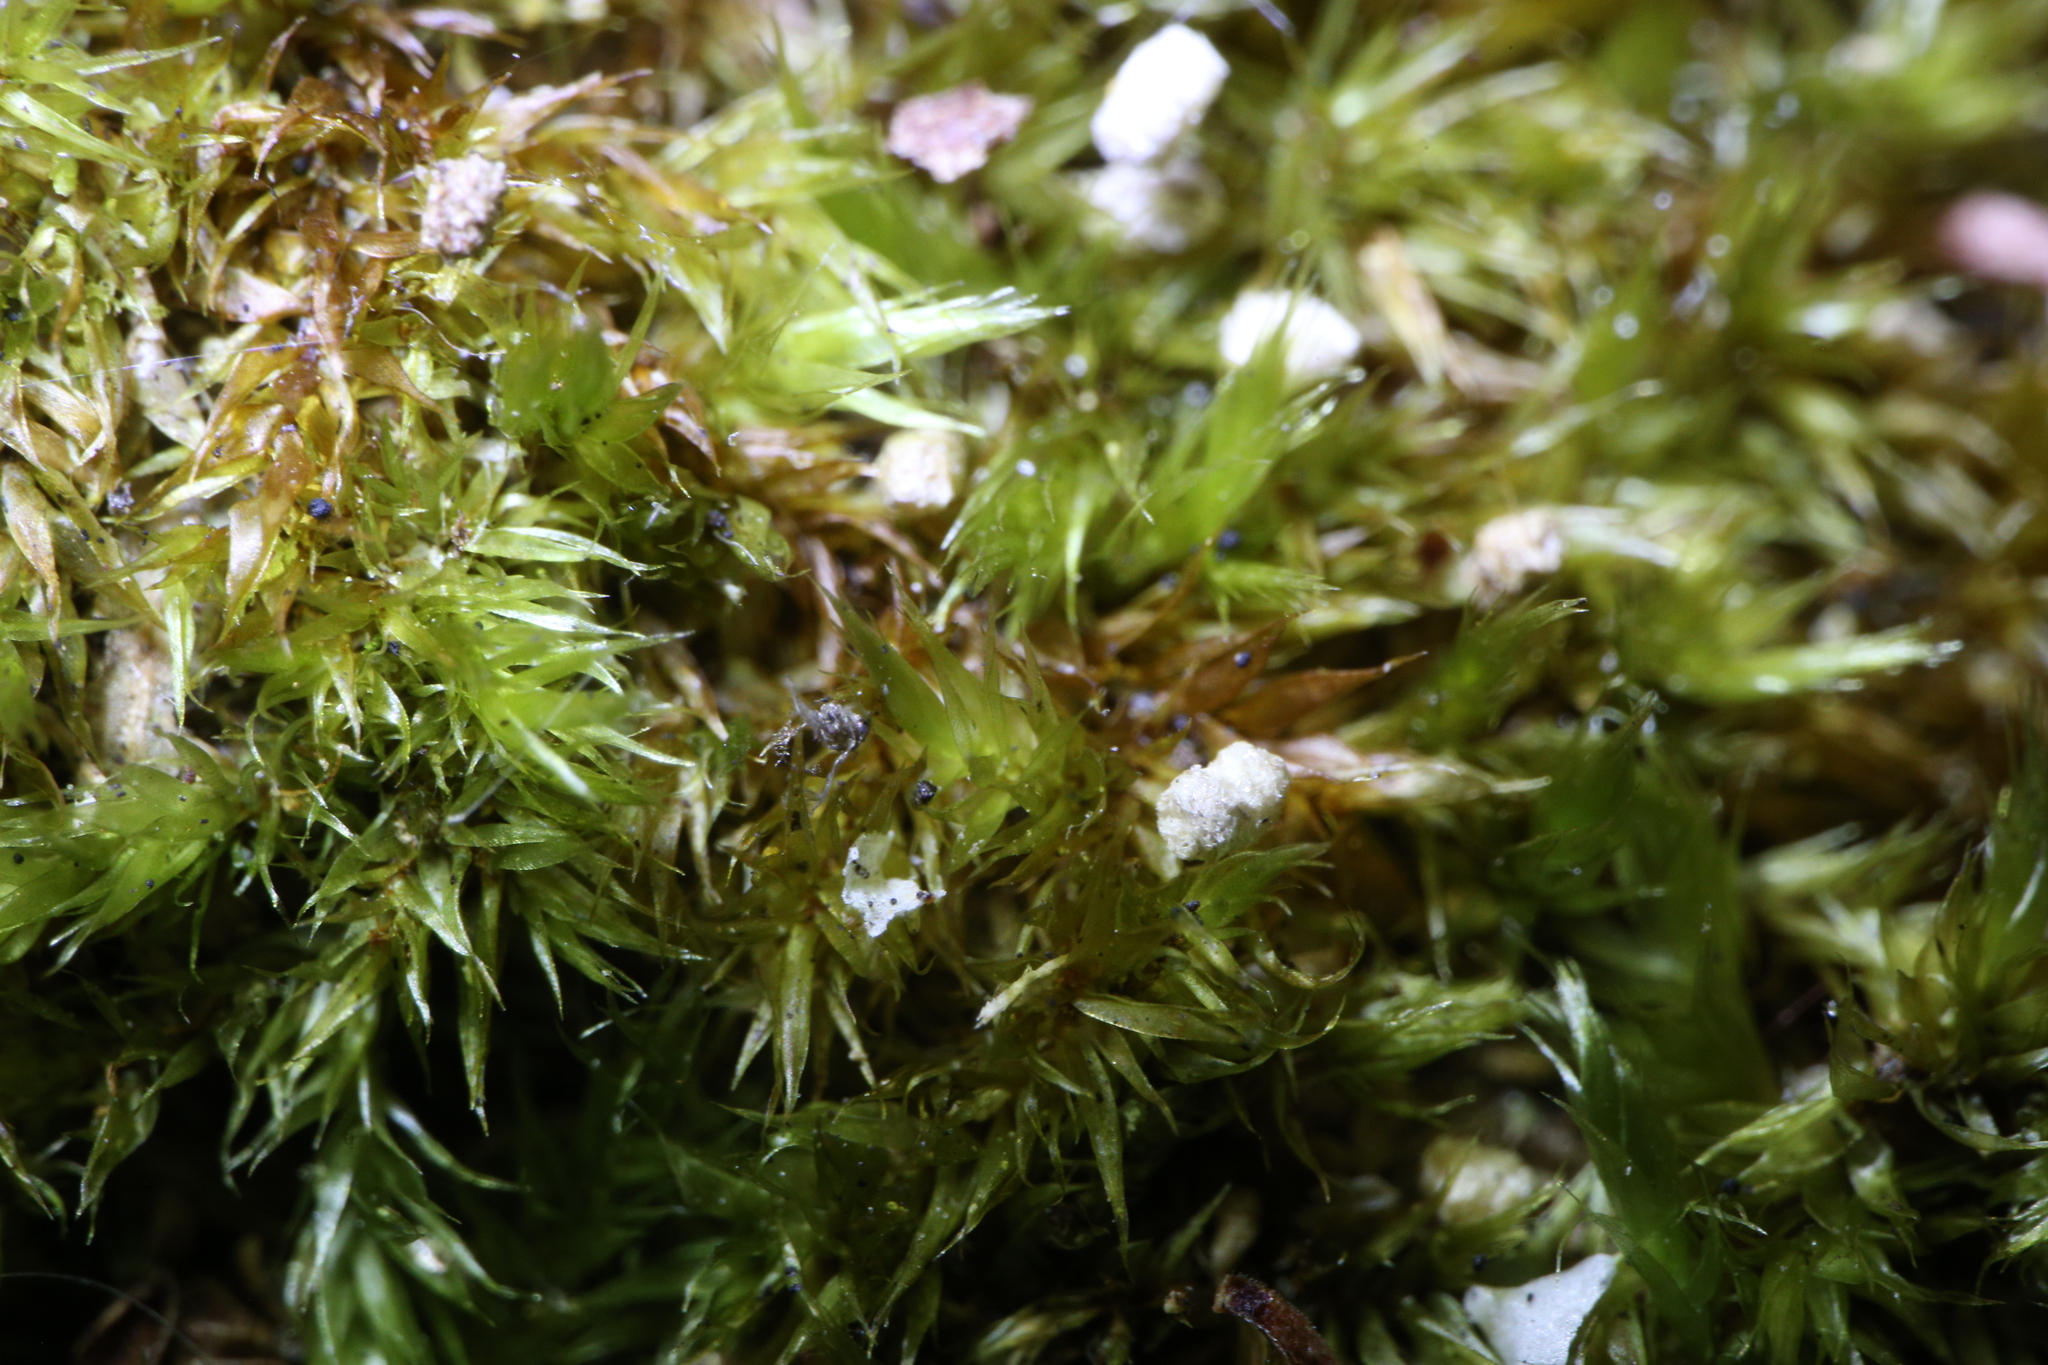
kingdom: Plantae
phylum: Bryophyta
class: Bryopsida
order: Hypnales
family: Sematophyllaceae
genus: Sematophyllum
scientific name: Sematophyllum homomallum
